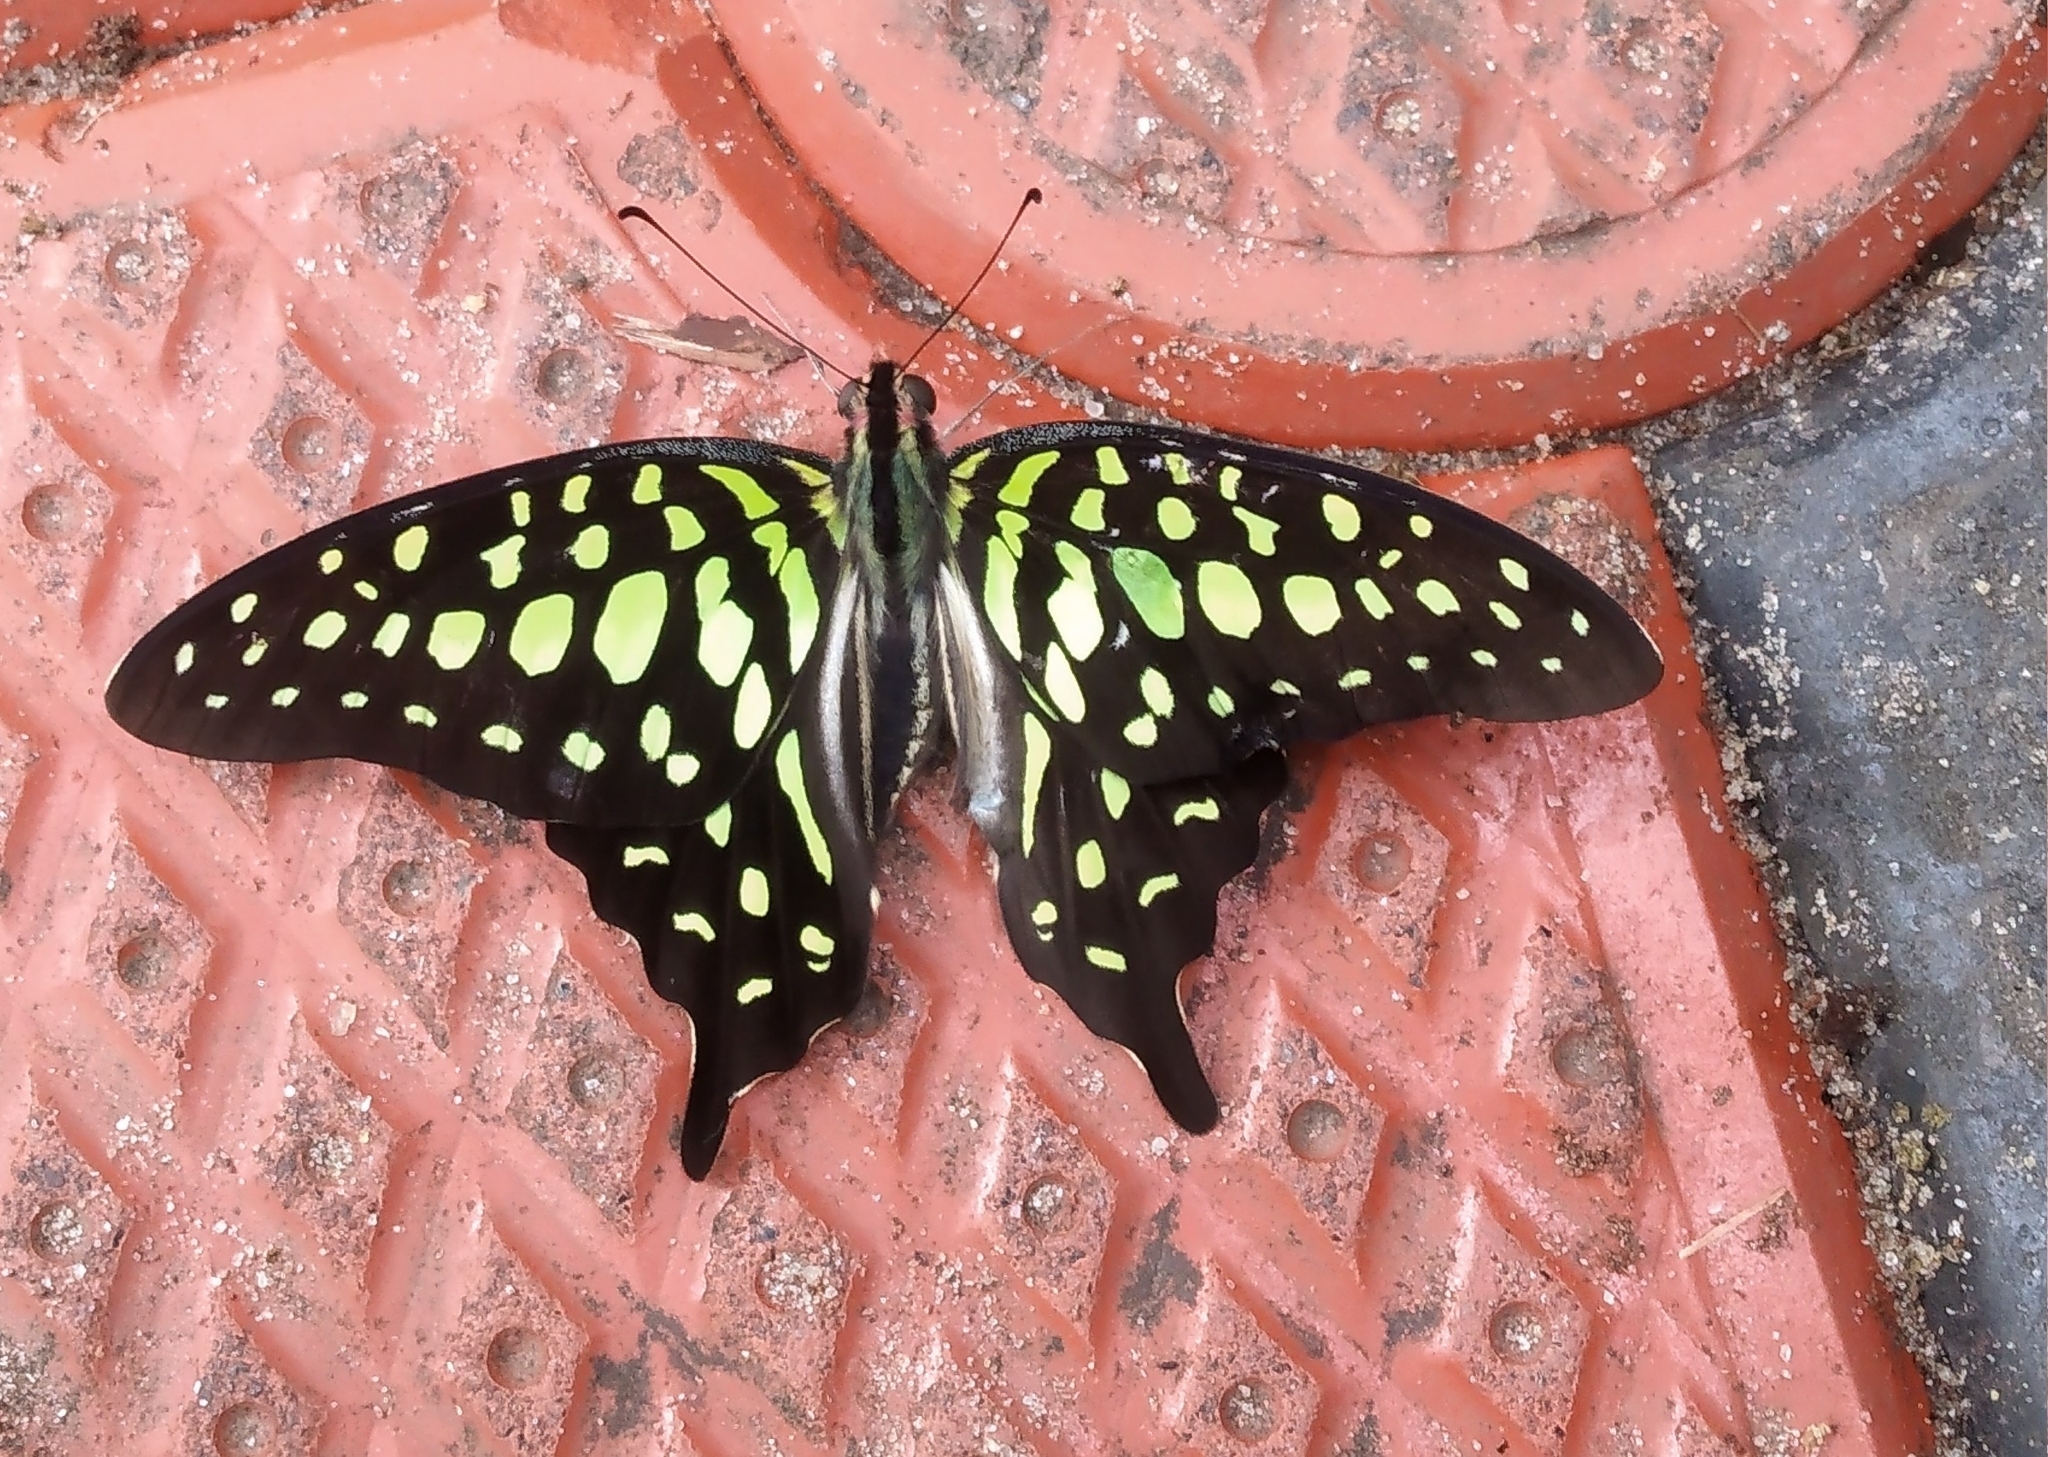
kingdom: Animalia
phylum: Arthropoda
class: Insecta
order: Lepidoptera
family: Papilionidae
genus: Graphium
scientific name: Graphium agamemnon
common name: Tailed jay
